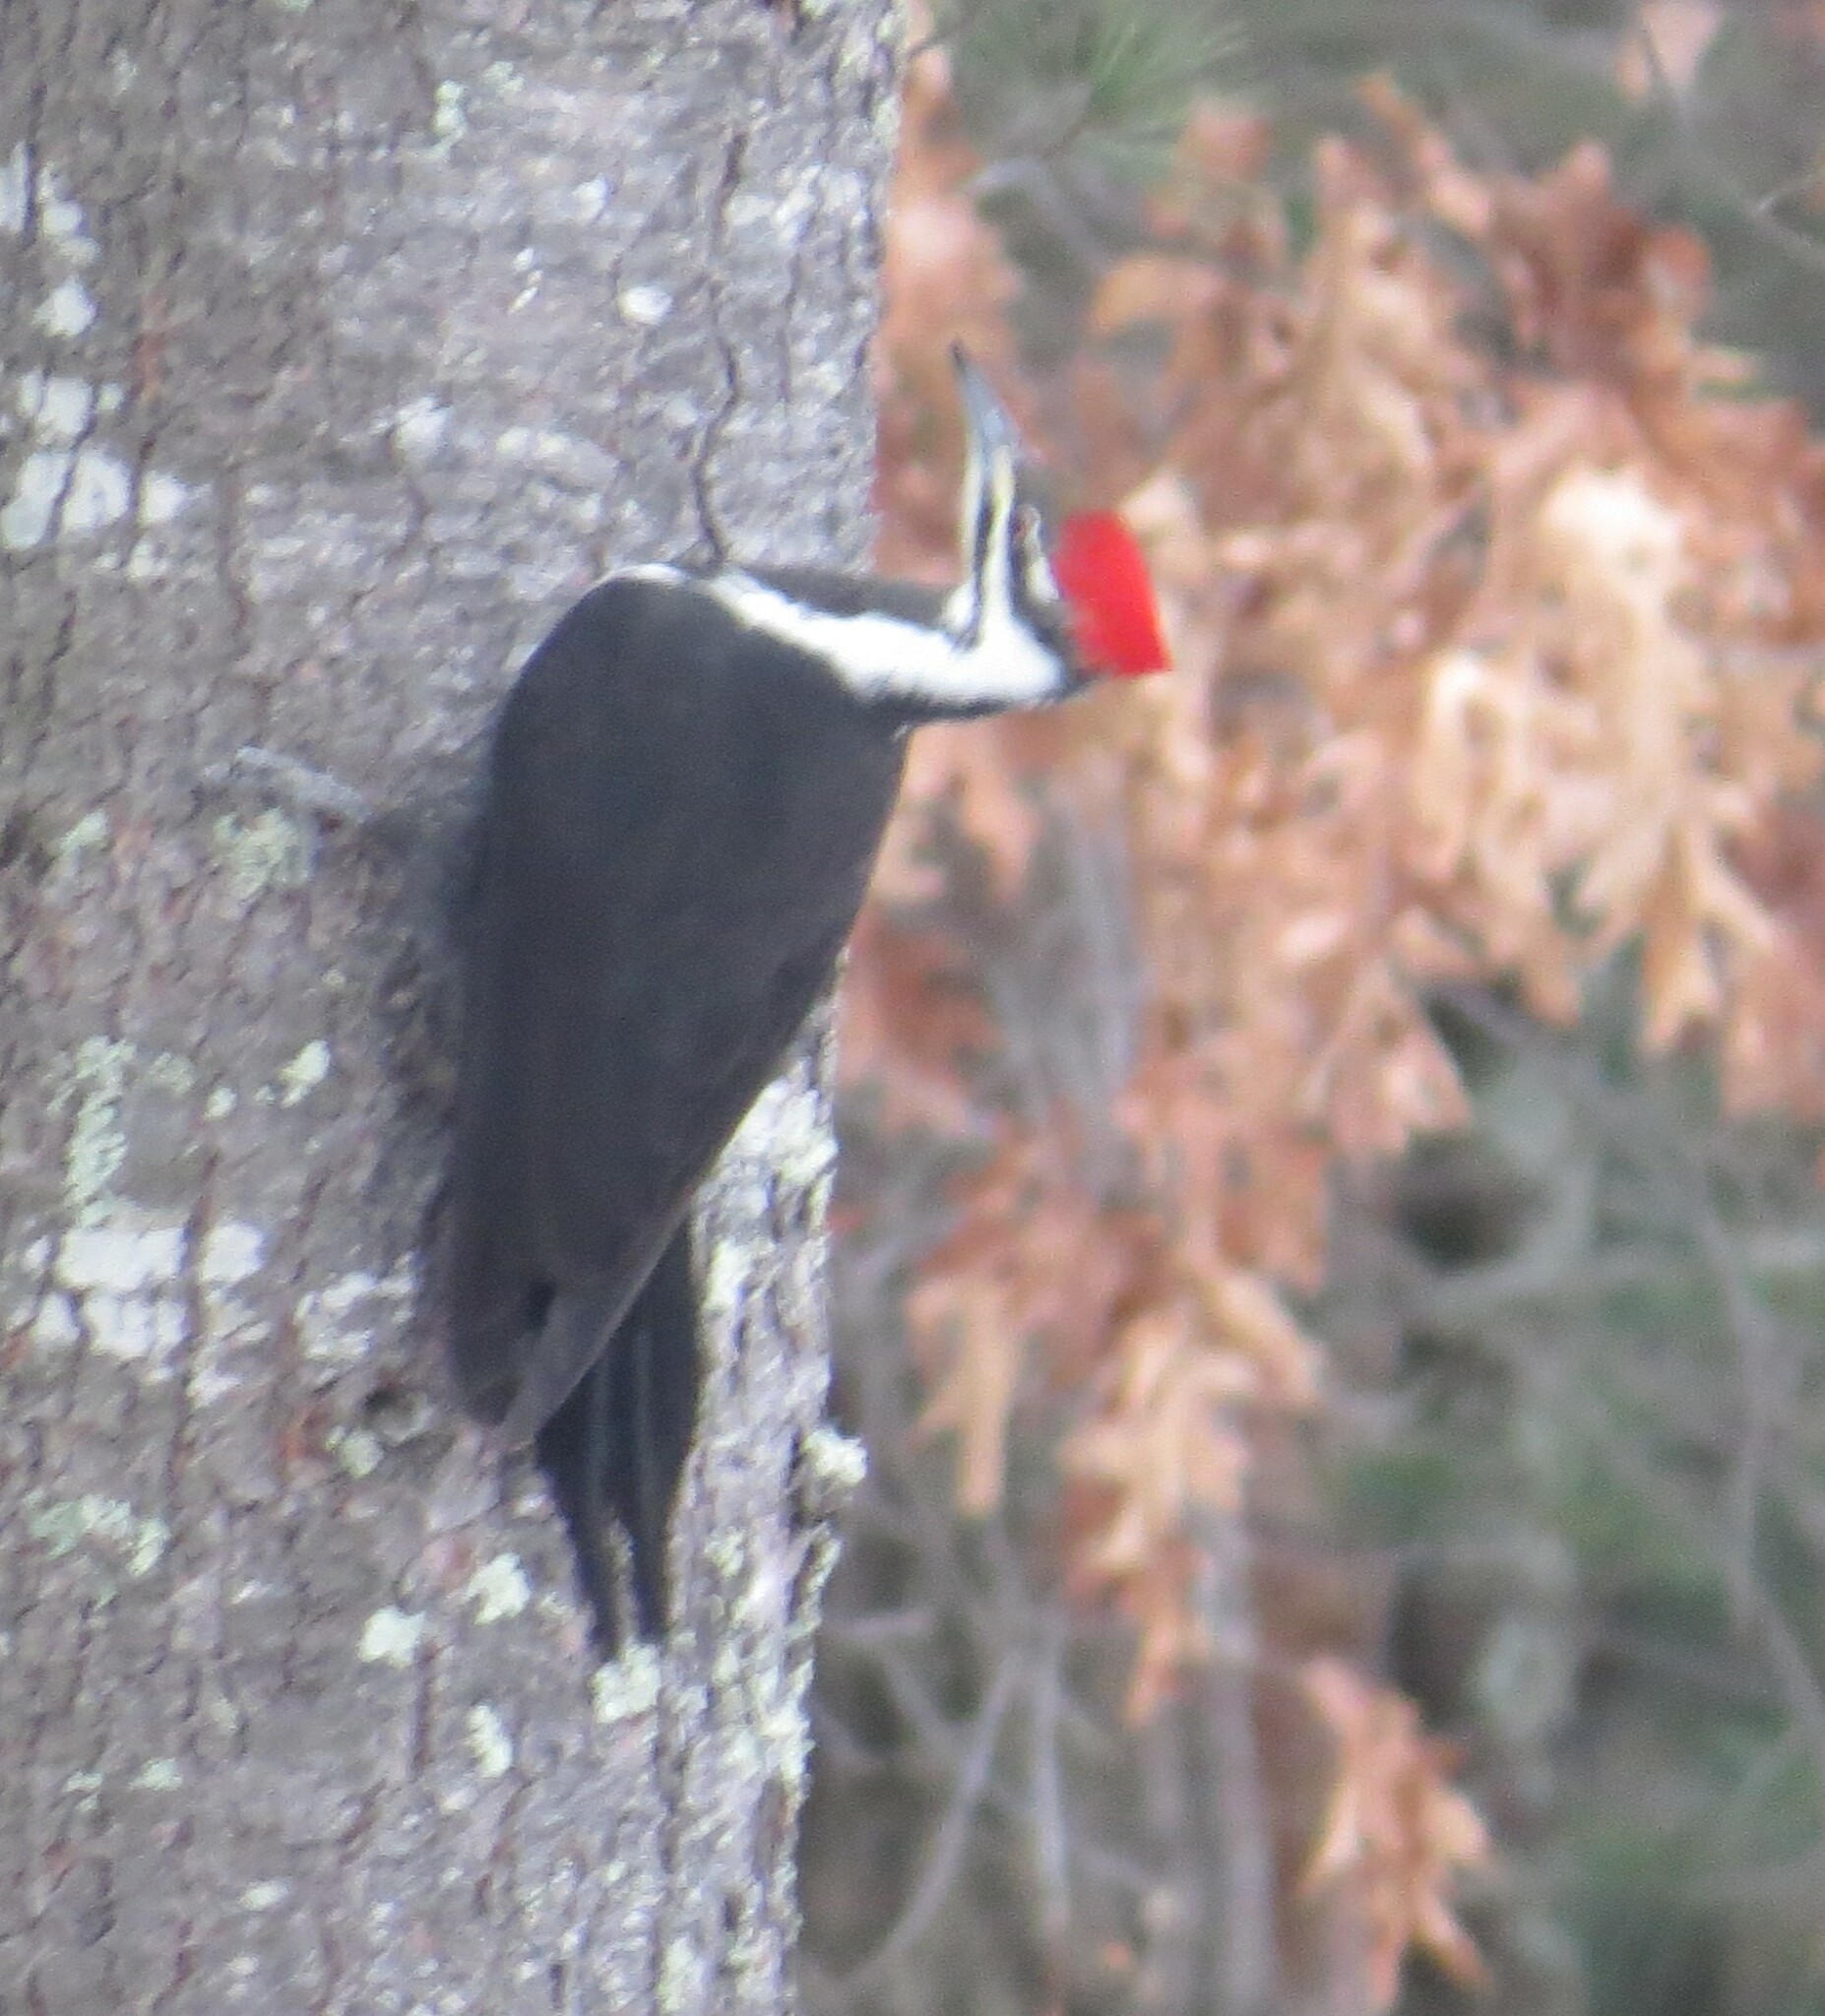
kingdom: Animalia
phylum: Chordata
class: Aves
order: Piciformes
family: Picidae
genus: Dryocopus
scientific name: Dryocopus pileatus
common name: Pileated woodpecker
